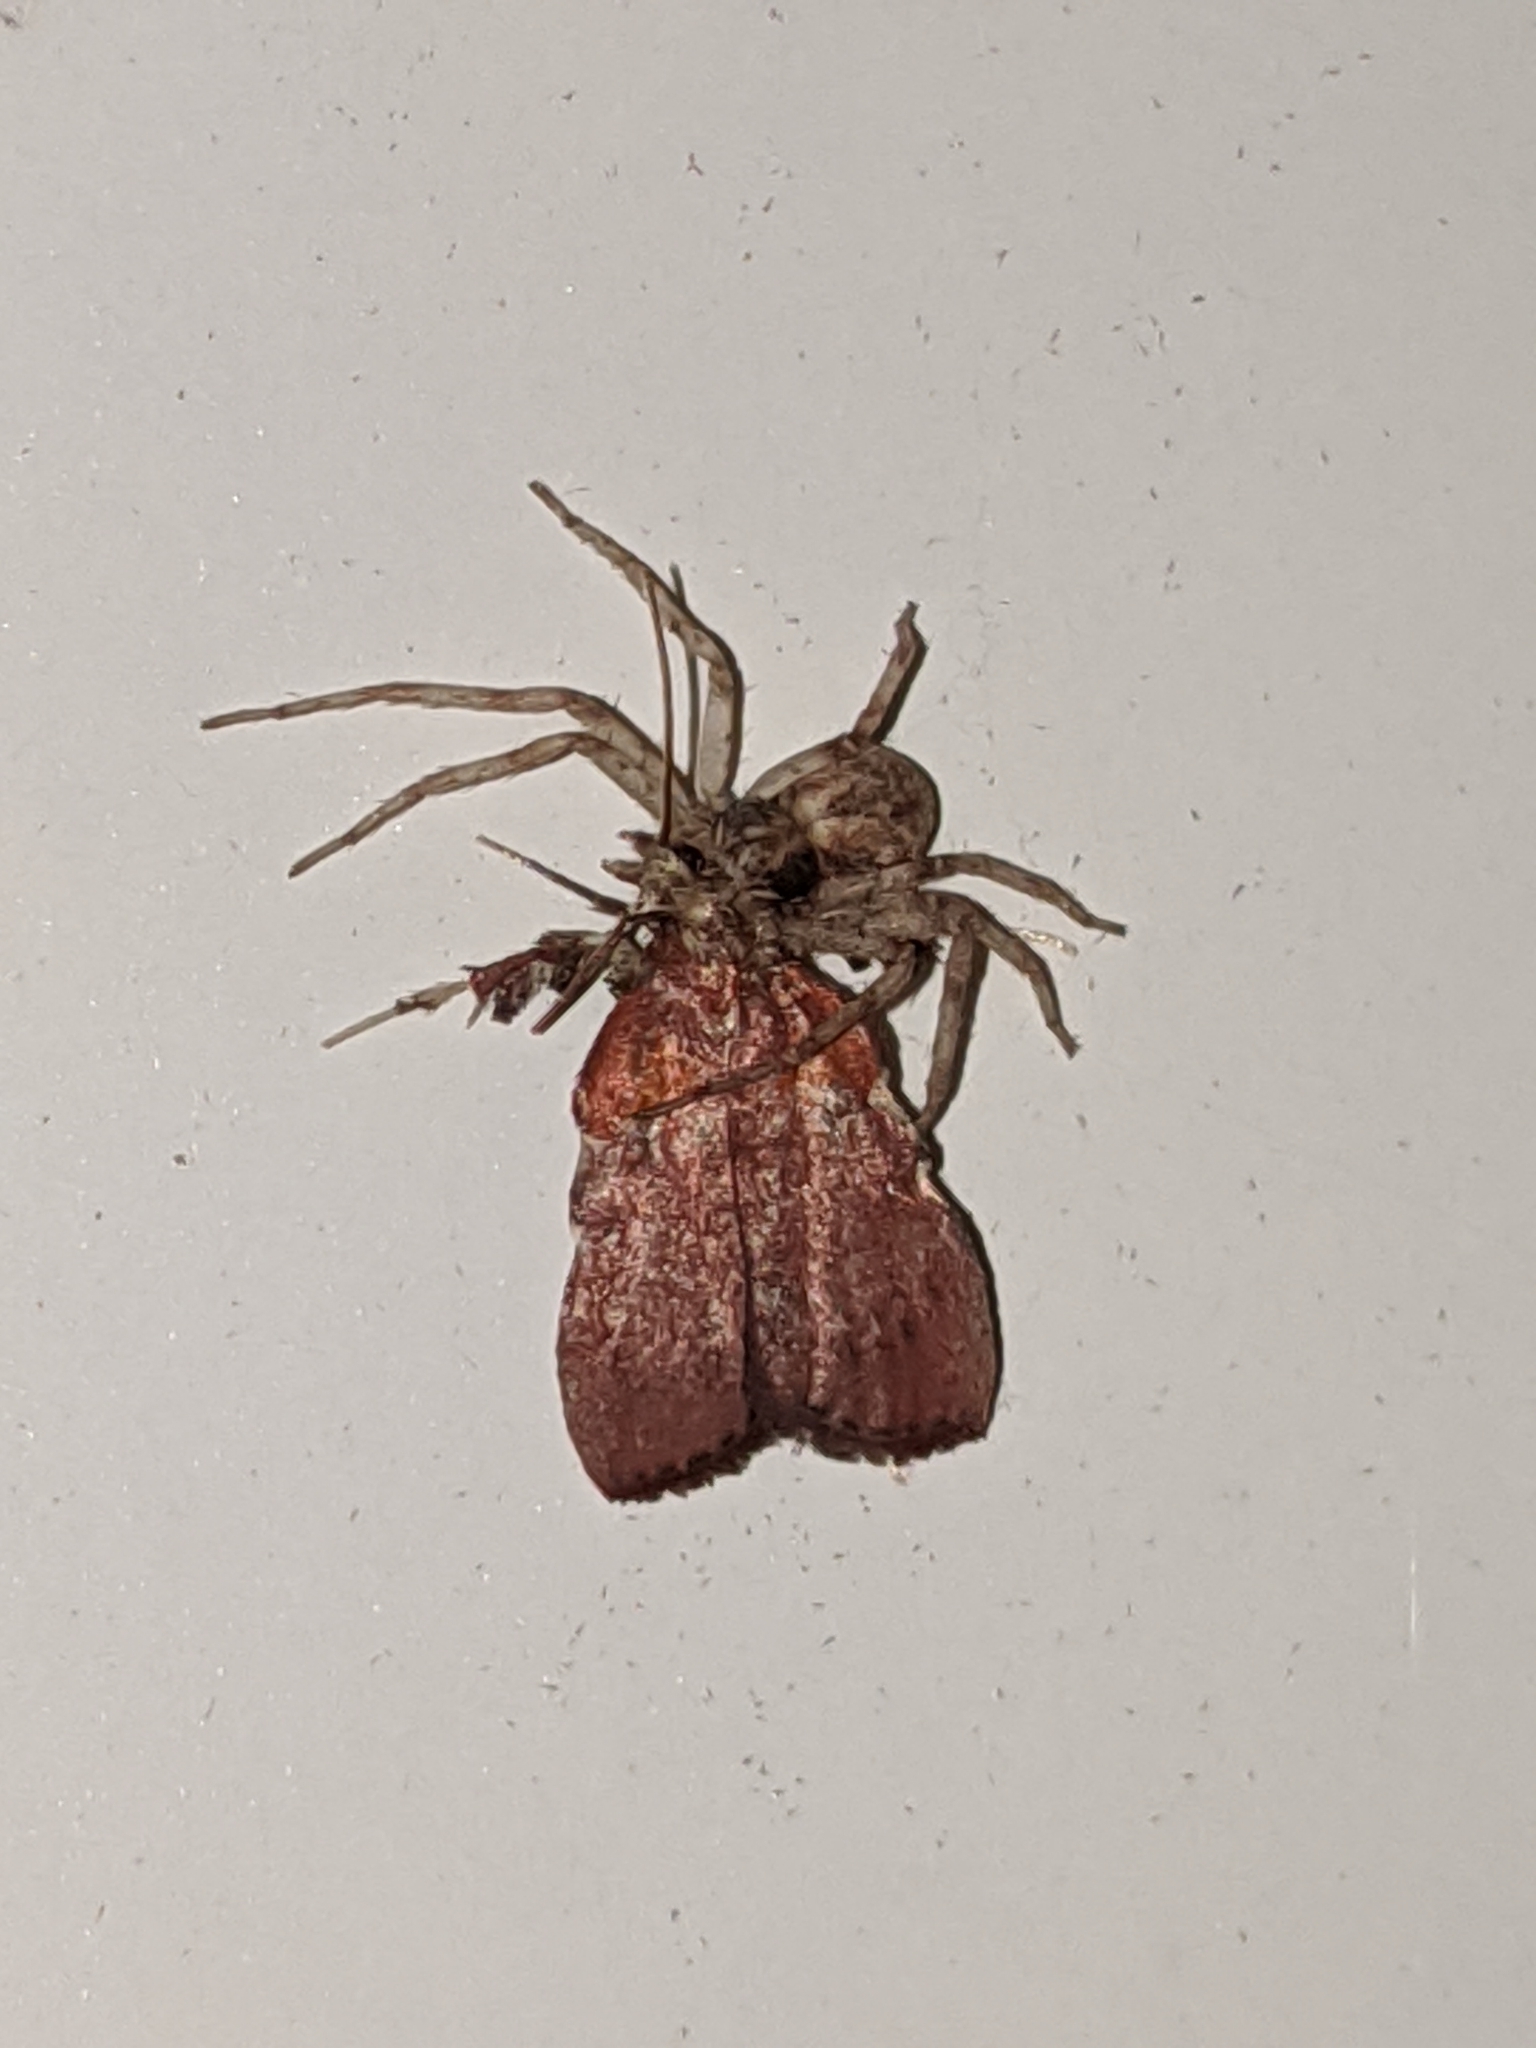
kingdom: Animalia
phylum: Arthropoda
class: Insecta
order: Lepidoptera
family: Pyralidae
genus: Galasa
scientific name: Galasa nigrinodis
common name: Boxwood leaftier moth
